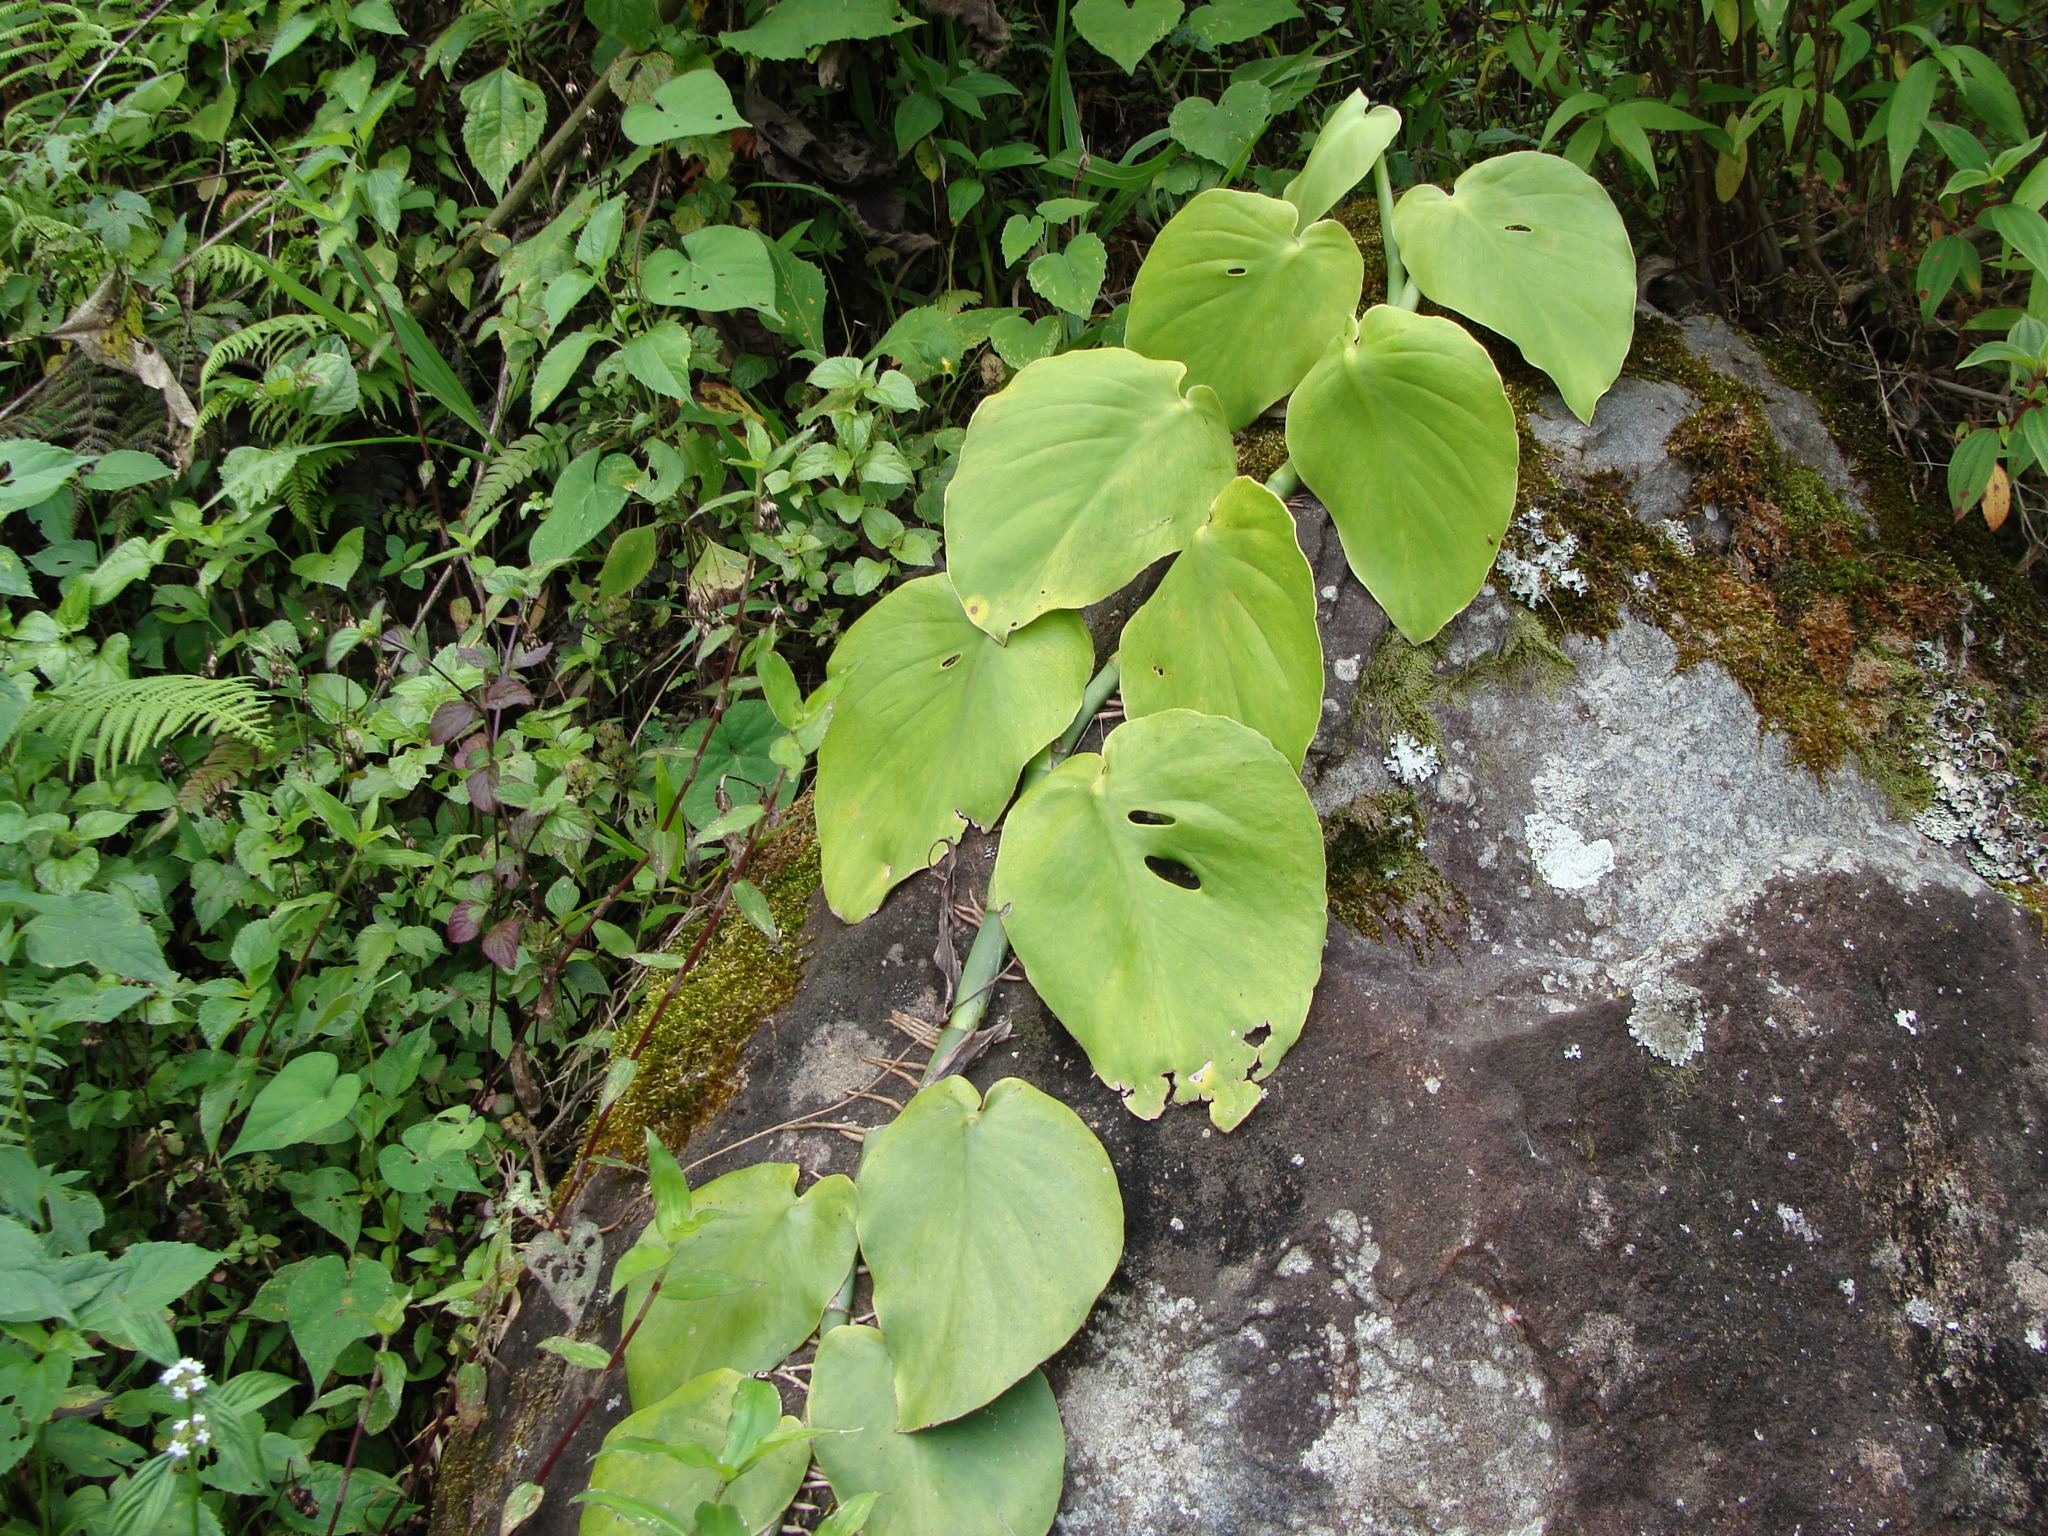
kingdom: Plantae
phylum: Tracheophyta
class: Liliopsida
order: Alismatales
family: Araceae
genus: Monstera
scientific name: Monstera acuminata
